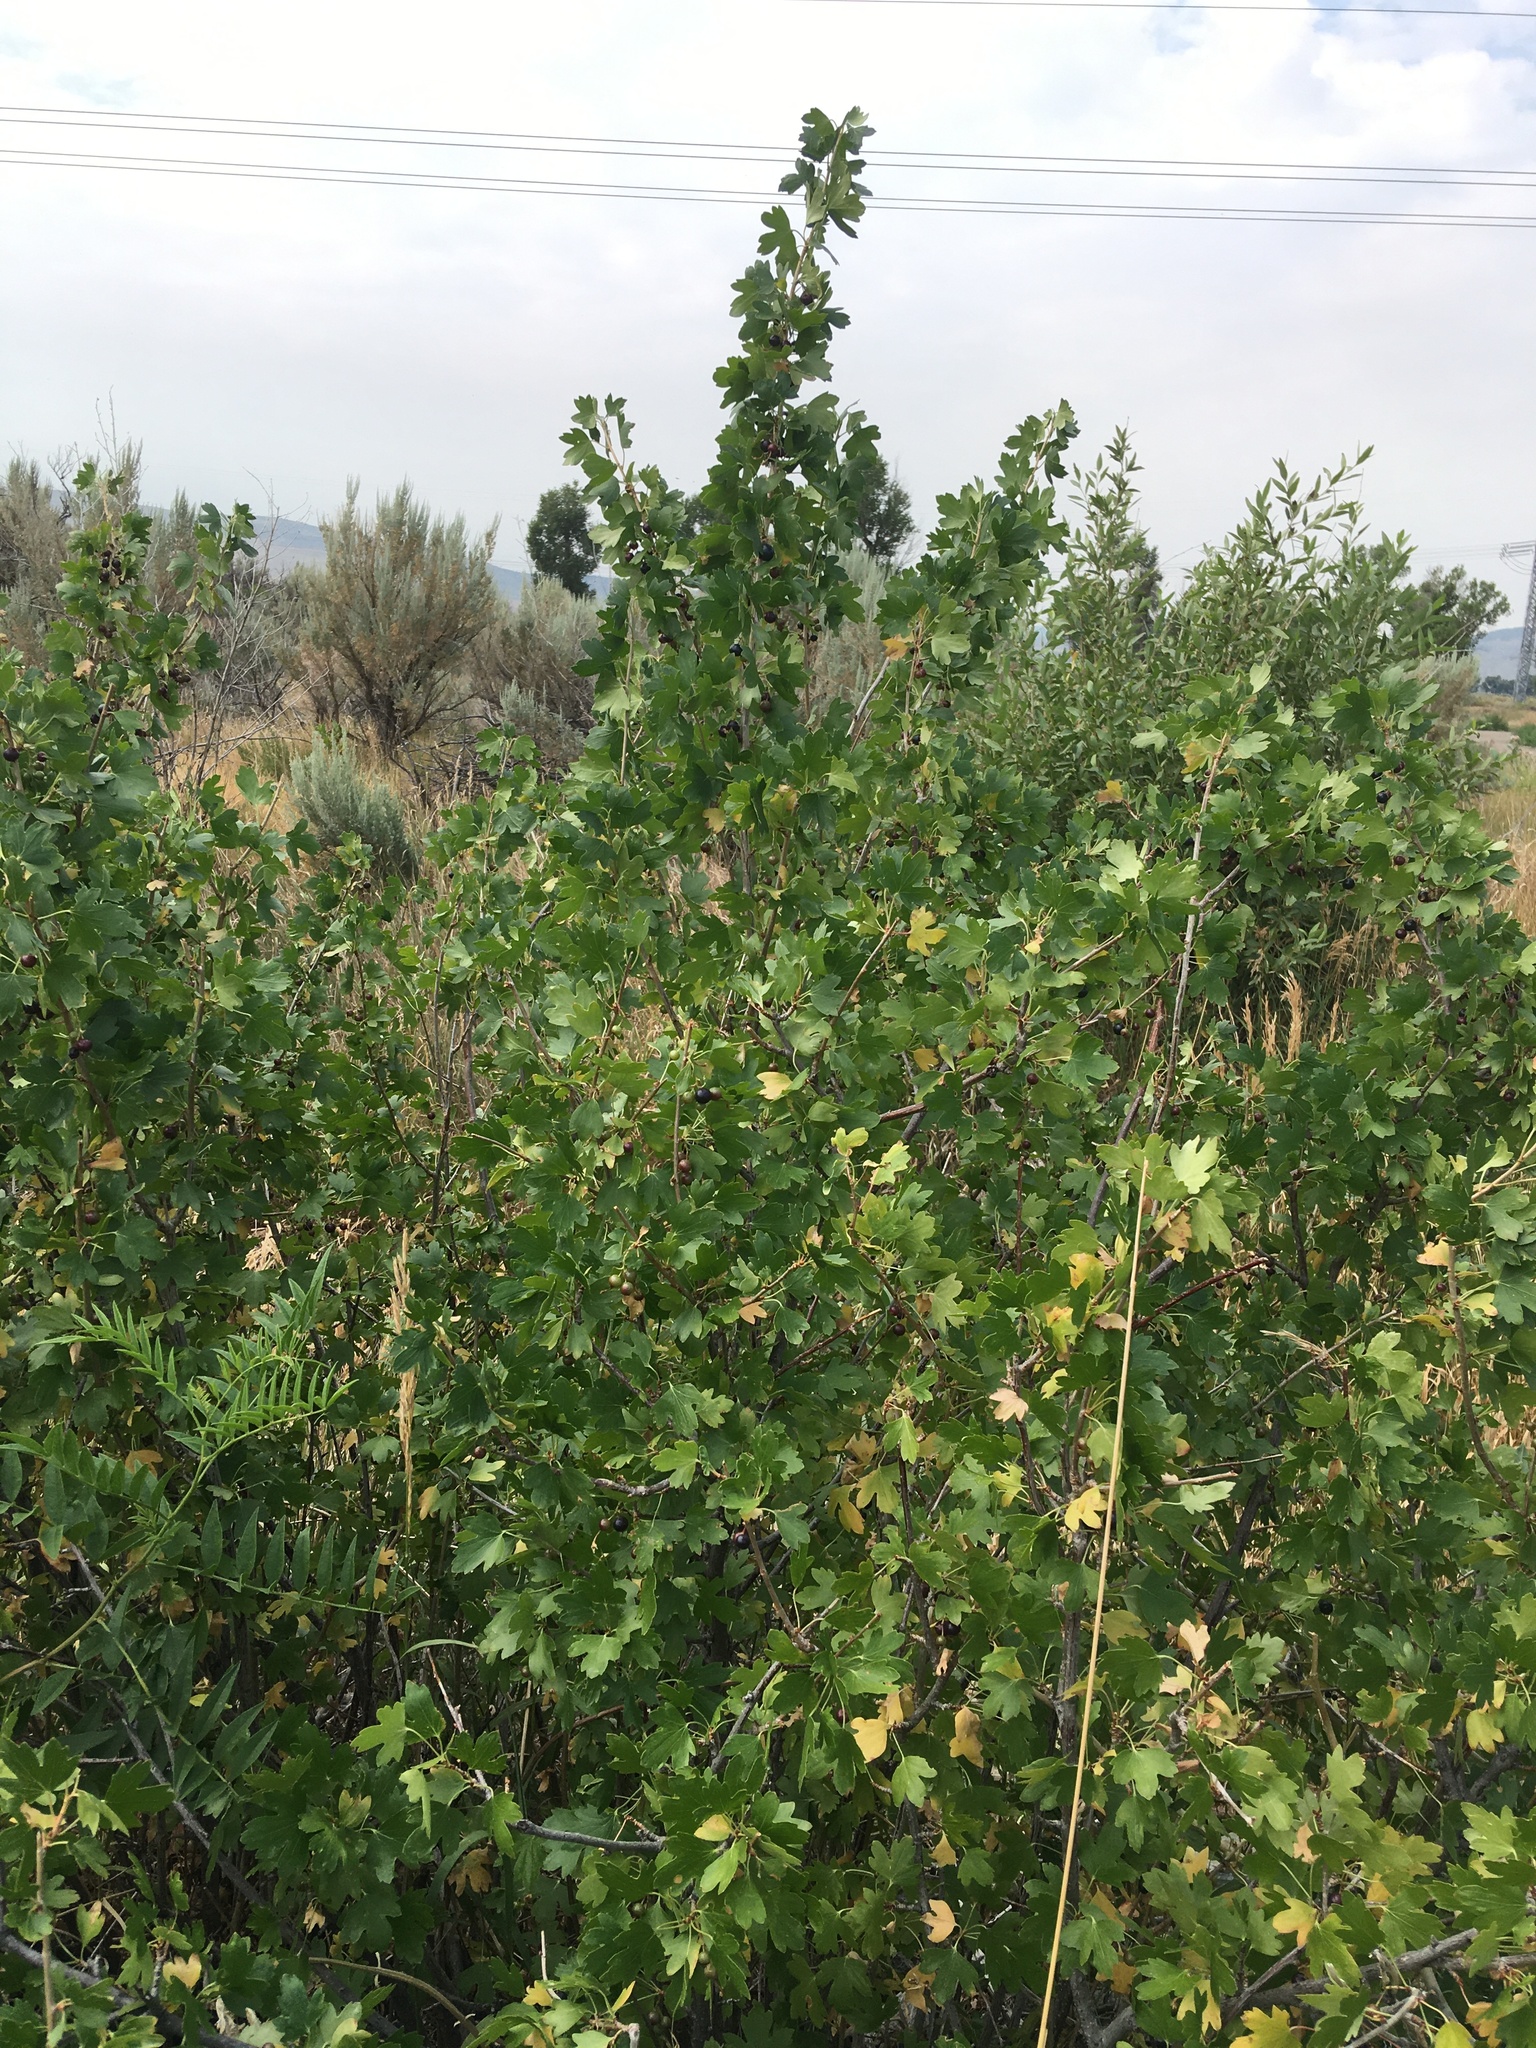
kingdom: Plantae
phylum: Tracheophyta
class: Magnoliopsida
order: Saxifragales
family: Grossulariaceae
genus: Ribes
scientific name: Ribes aureum
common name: Golden currant
